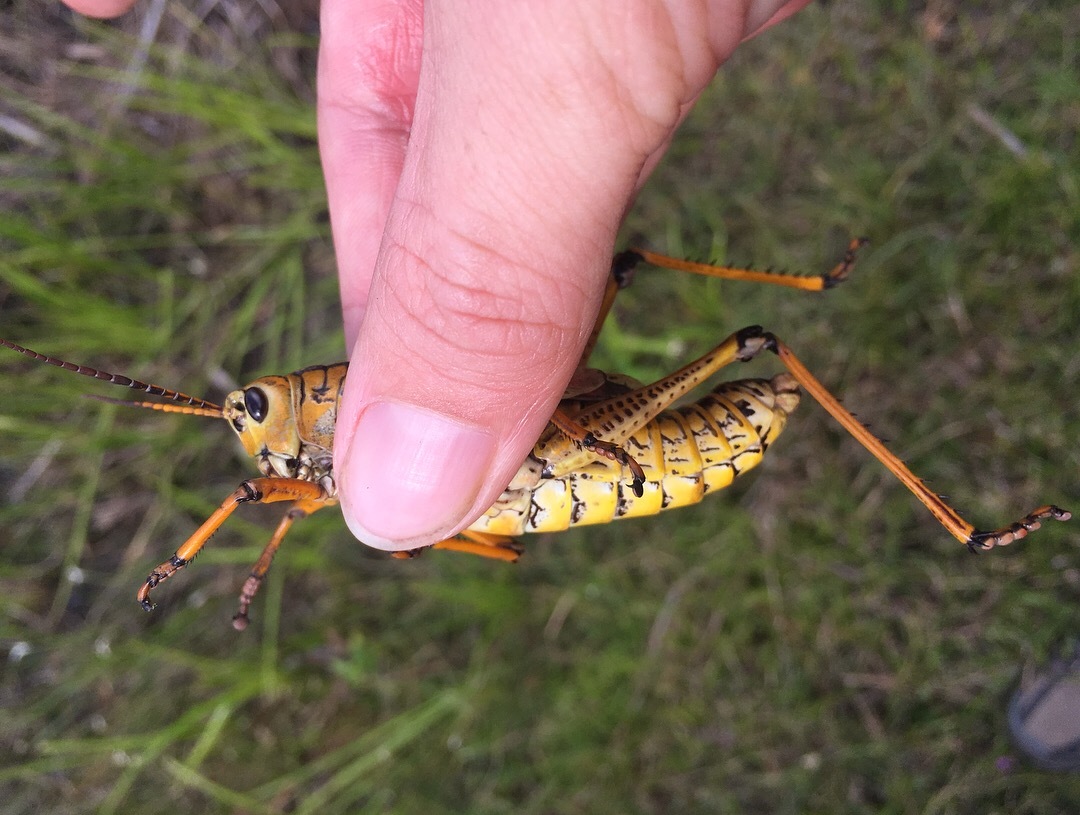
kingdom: Animalia
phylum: Arthropoda
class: Insecta
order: Orthoptera
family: Romaleidae
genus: Romalea
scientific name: Romalea microptera
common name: Eastern lubber grasshopper
